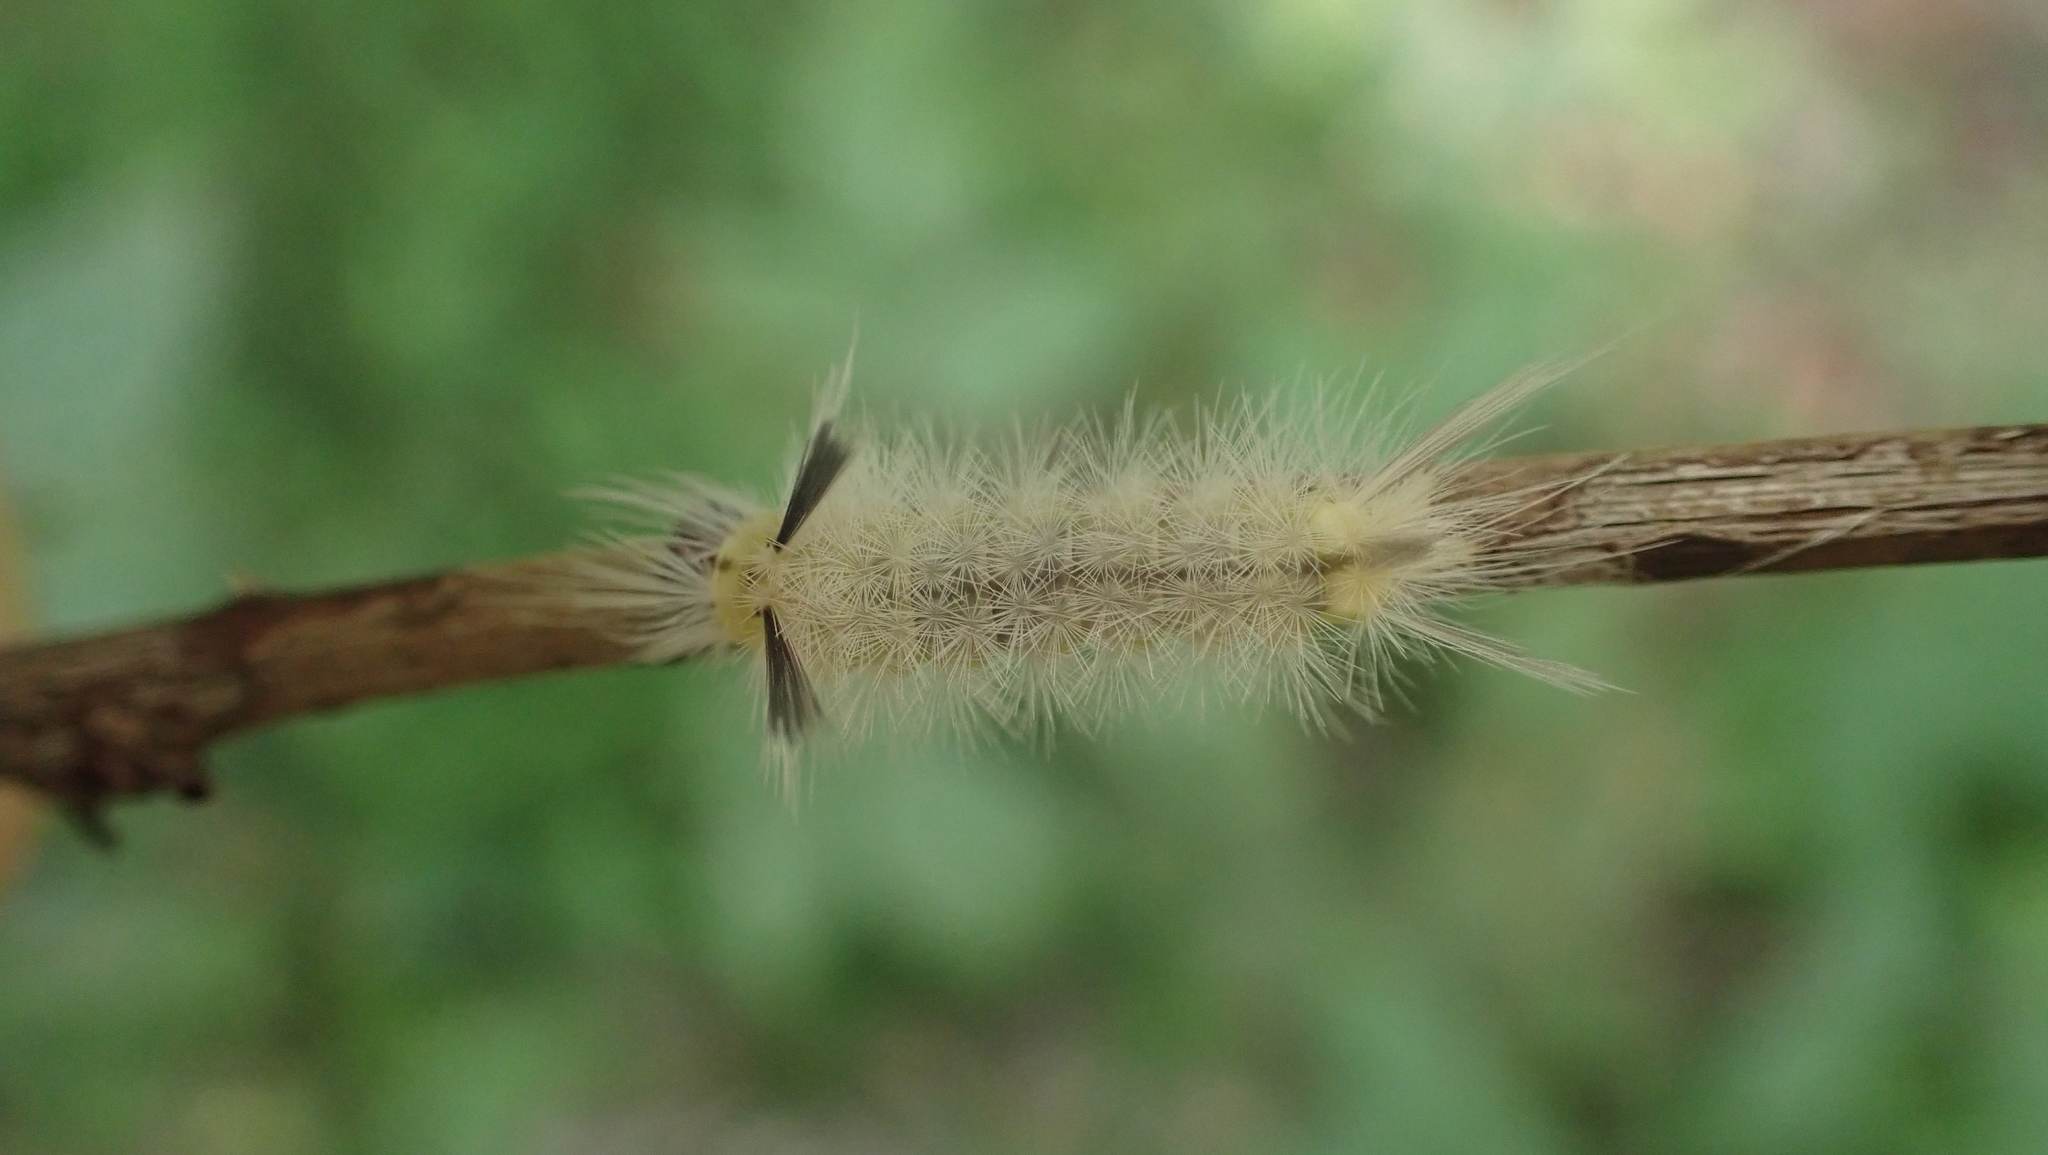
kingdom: Animalia
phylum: Arthropoda
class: Insecta
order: Lepidoptera
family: Erebidae
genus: Halysidota
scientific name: Halysidota tessellaris
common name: Banded tussock moth
